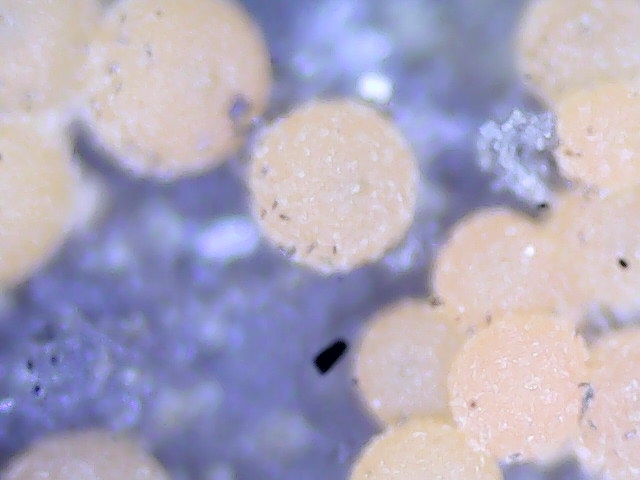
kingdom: Fungi
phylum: Ascomycota
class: Sordariomycetes
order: Hypocreales
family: Nectriaceae
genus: Hydropisphaera
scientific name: Hydropisphaera peziza
